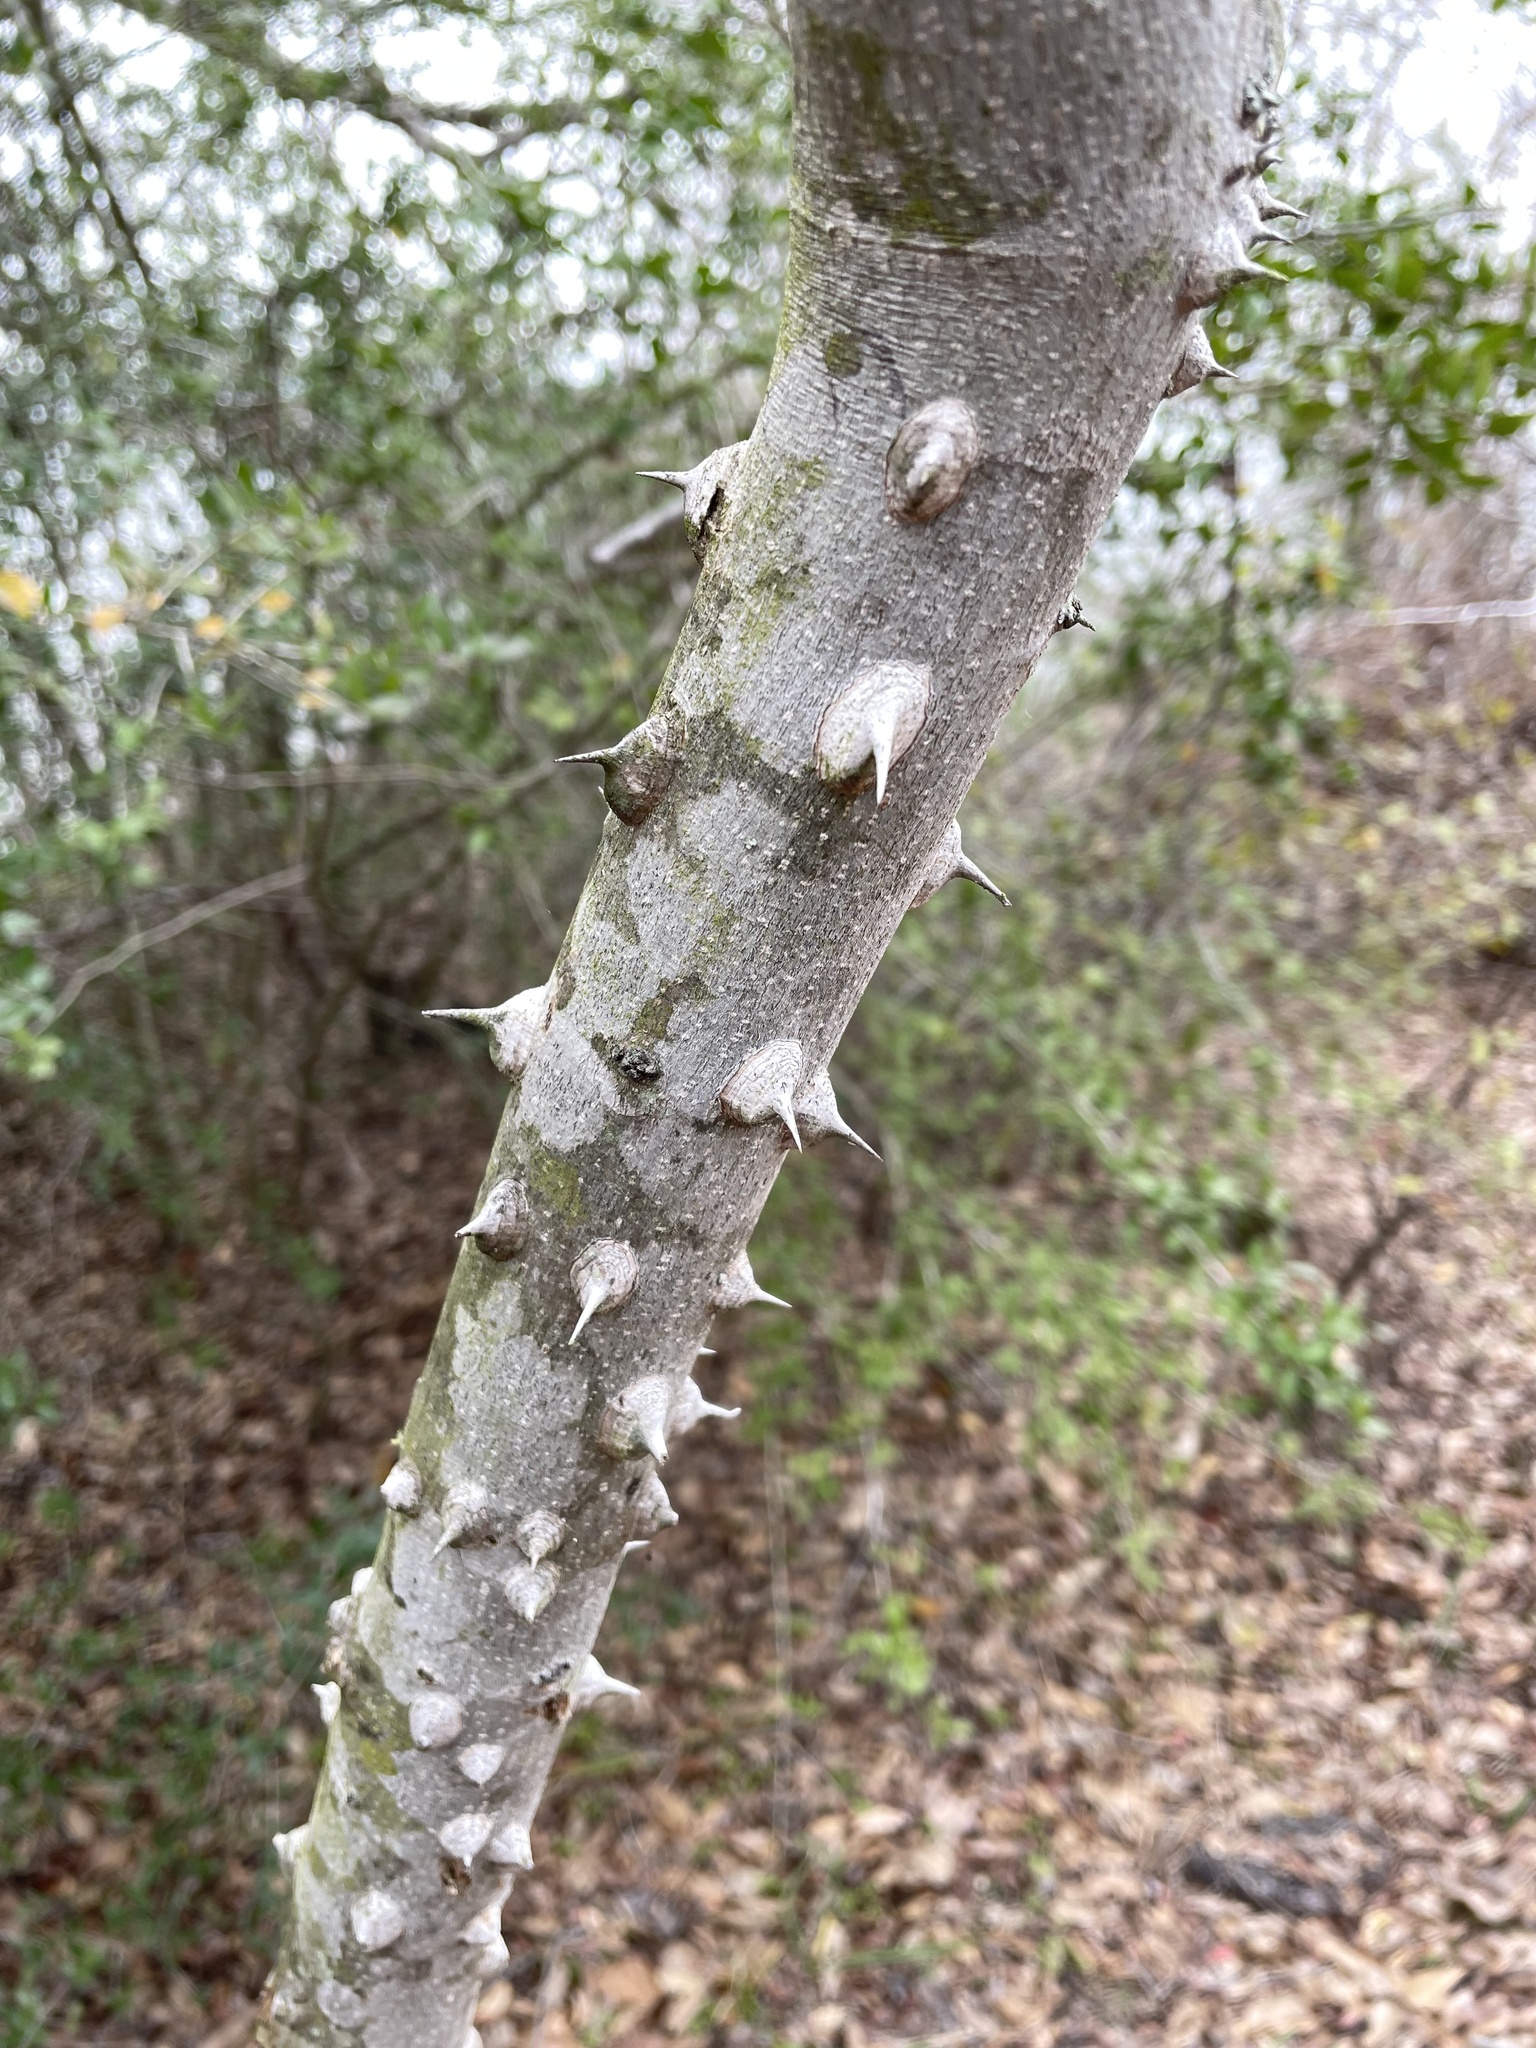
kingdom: Plantae
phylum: Tracheophyta
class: Magnoliopsida
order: Sapindales
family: Rutaceae
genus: Zanthoxylum
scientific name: Zanthoxylum clava-herculis
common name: Hercules'-club
